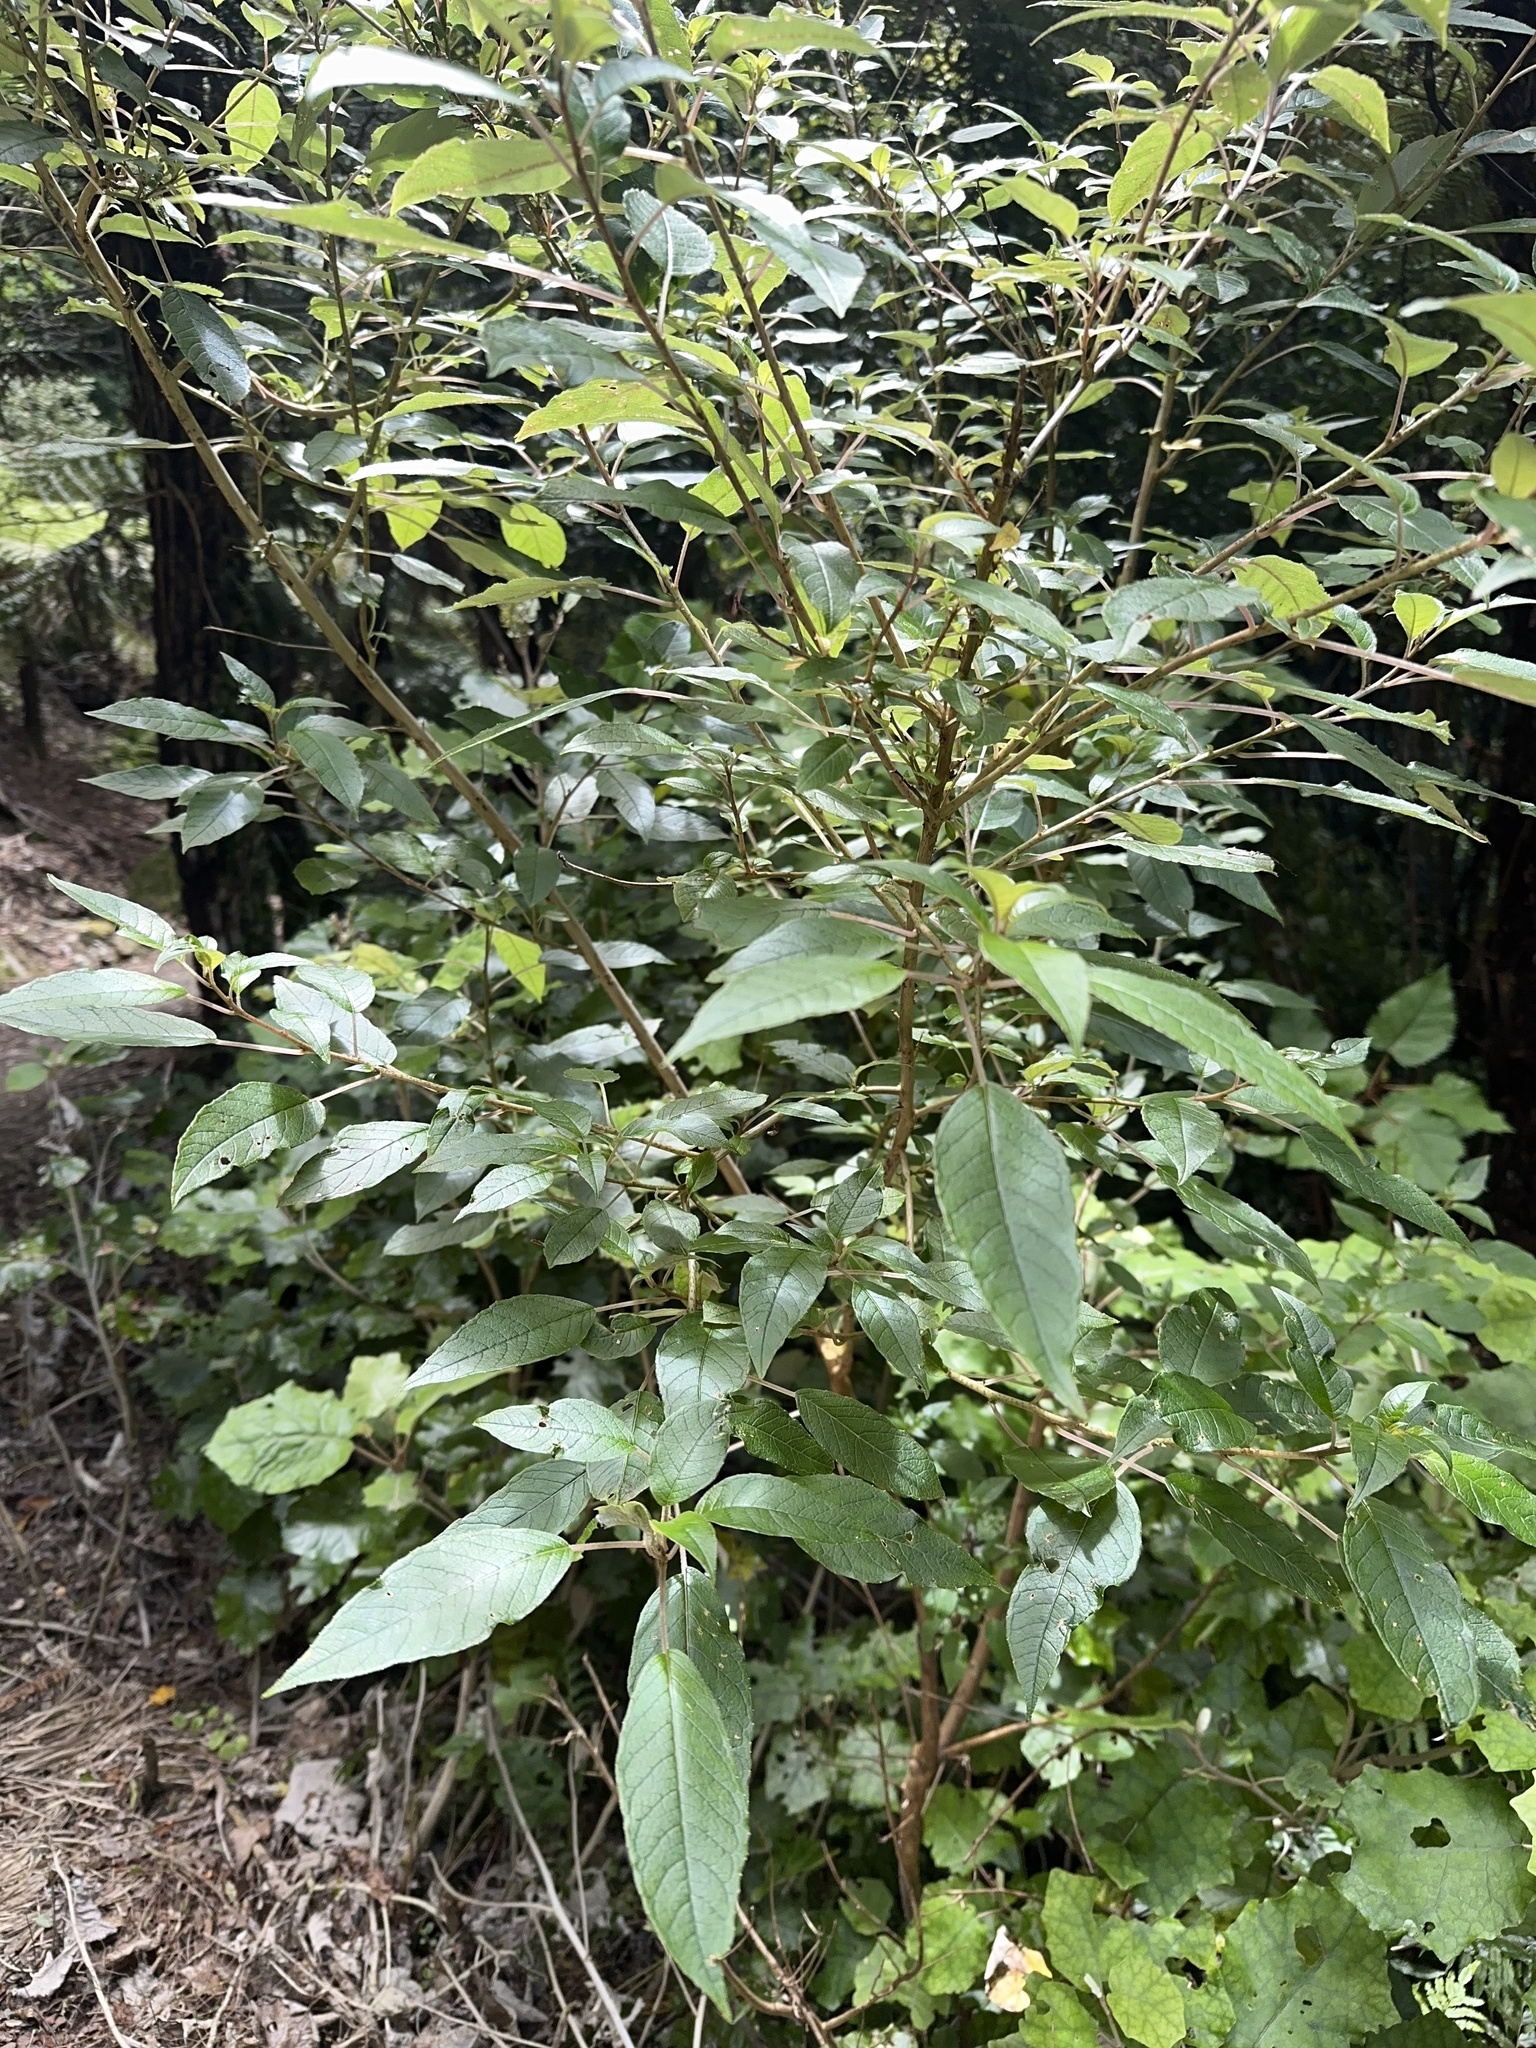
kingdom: Plantae
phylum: Tracheophyta
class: Magnoliopsida
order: Myrtales
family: Onagraceae
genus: Fuchsia
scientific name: Fuchsia excorticata
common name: Tree fuchsia
